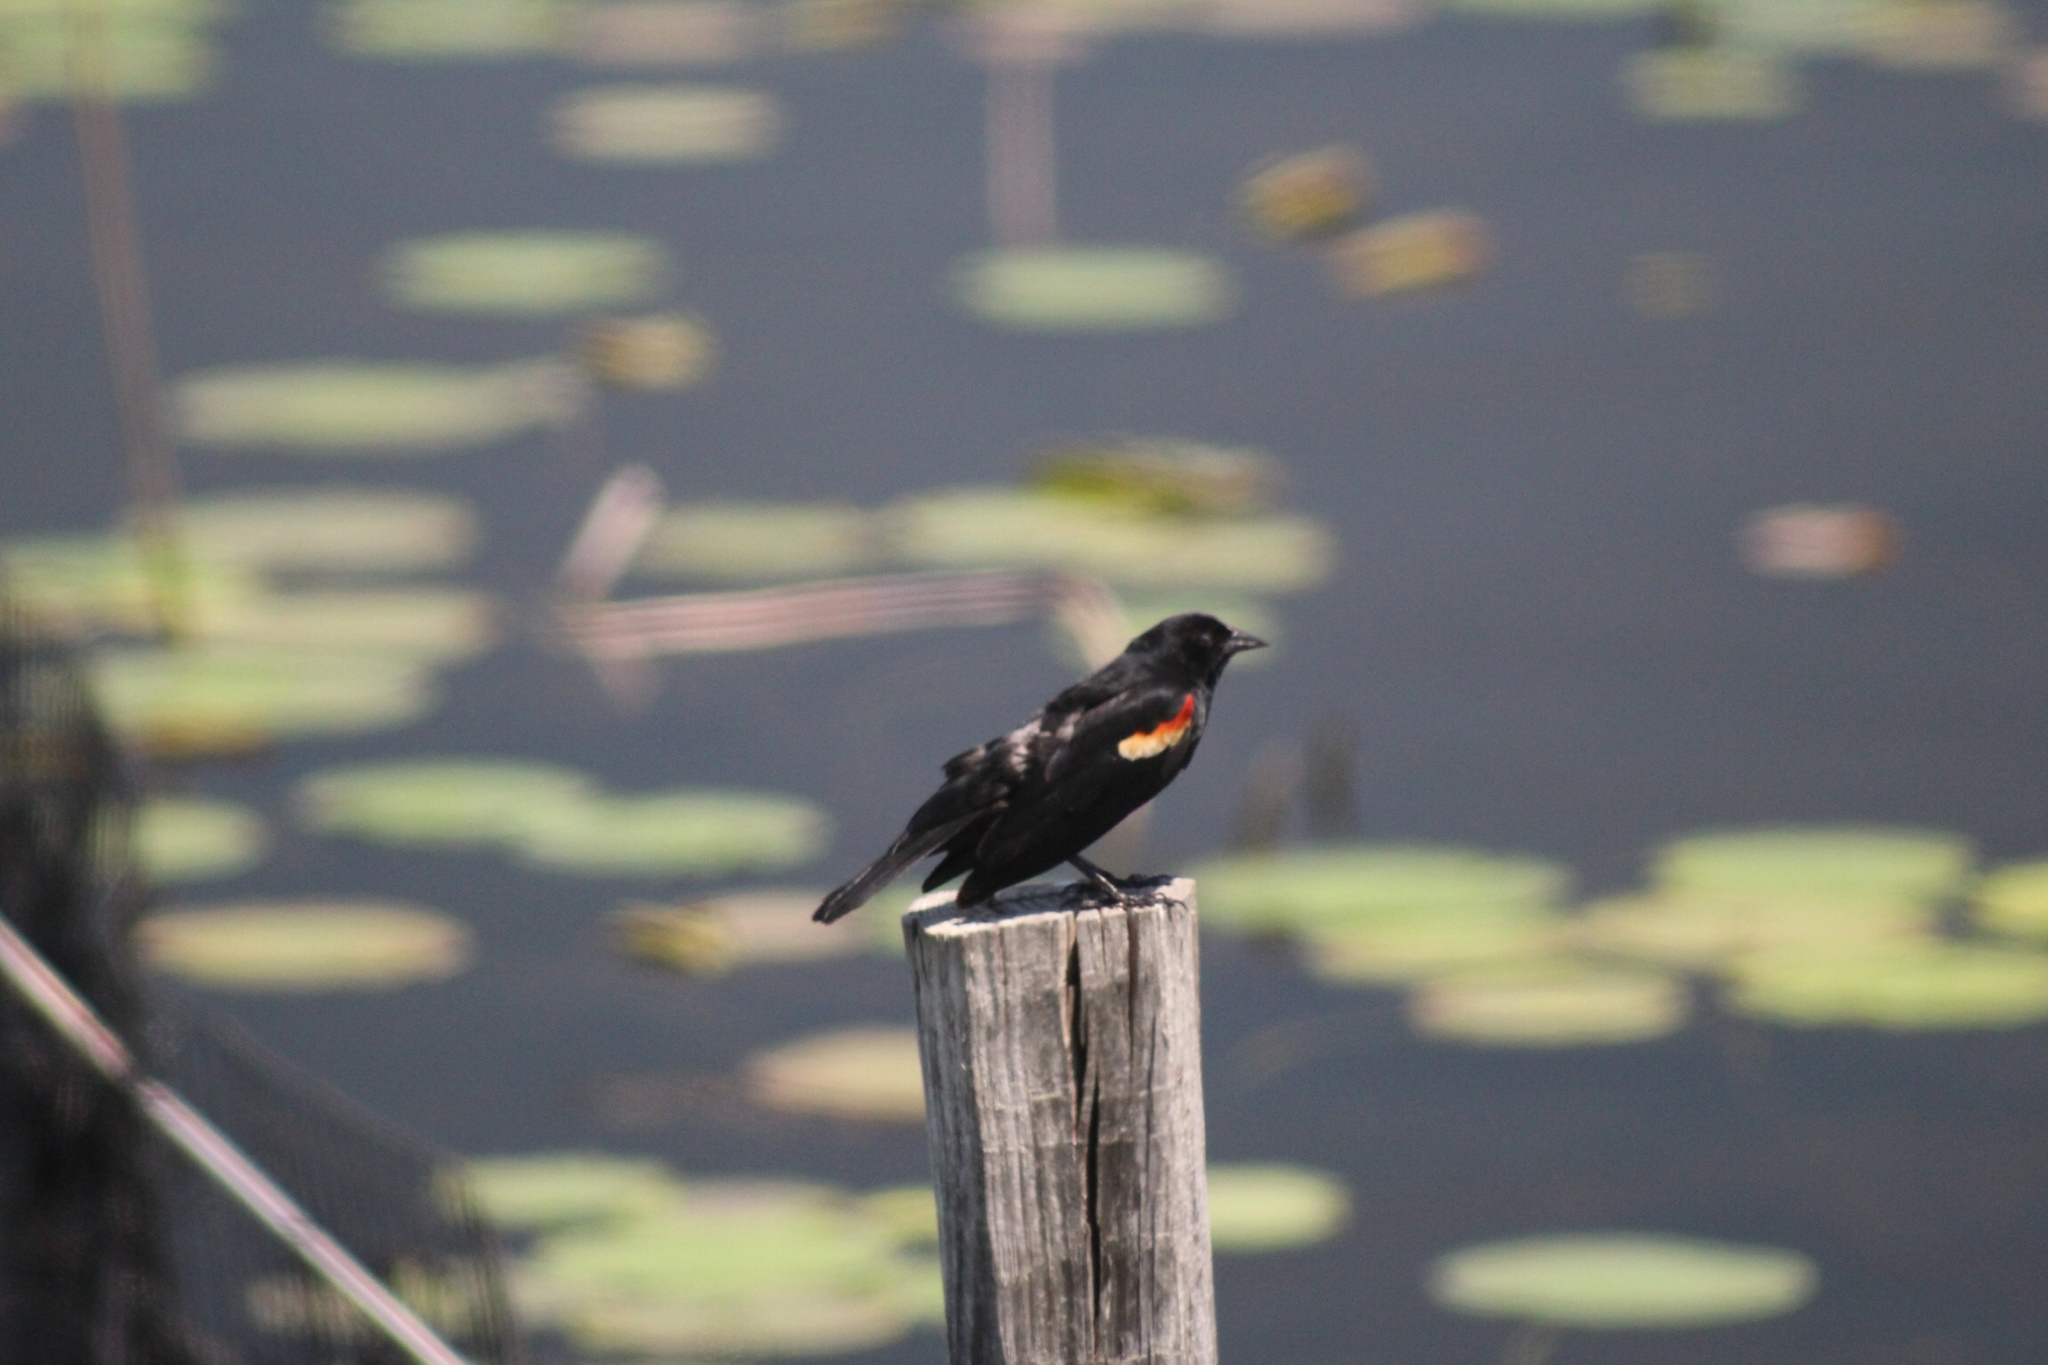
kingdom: Animalia
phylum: Chordata
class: Aves
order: Passeriformes
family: Icteridae
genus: Agelaius
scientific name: Agelaius phoeniceus
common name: Red-winged blackbird
